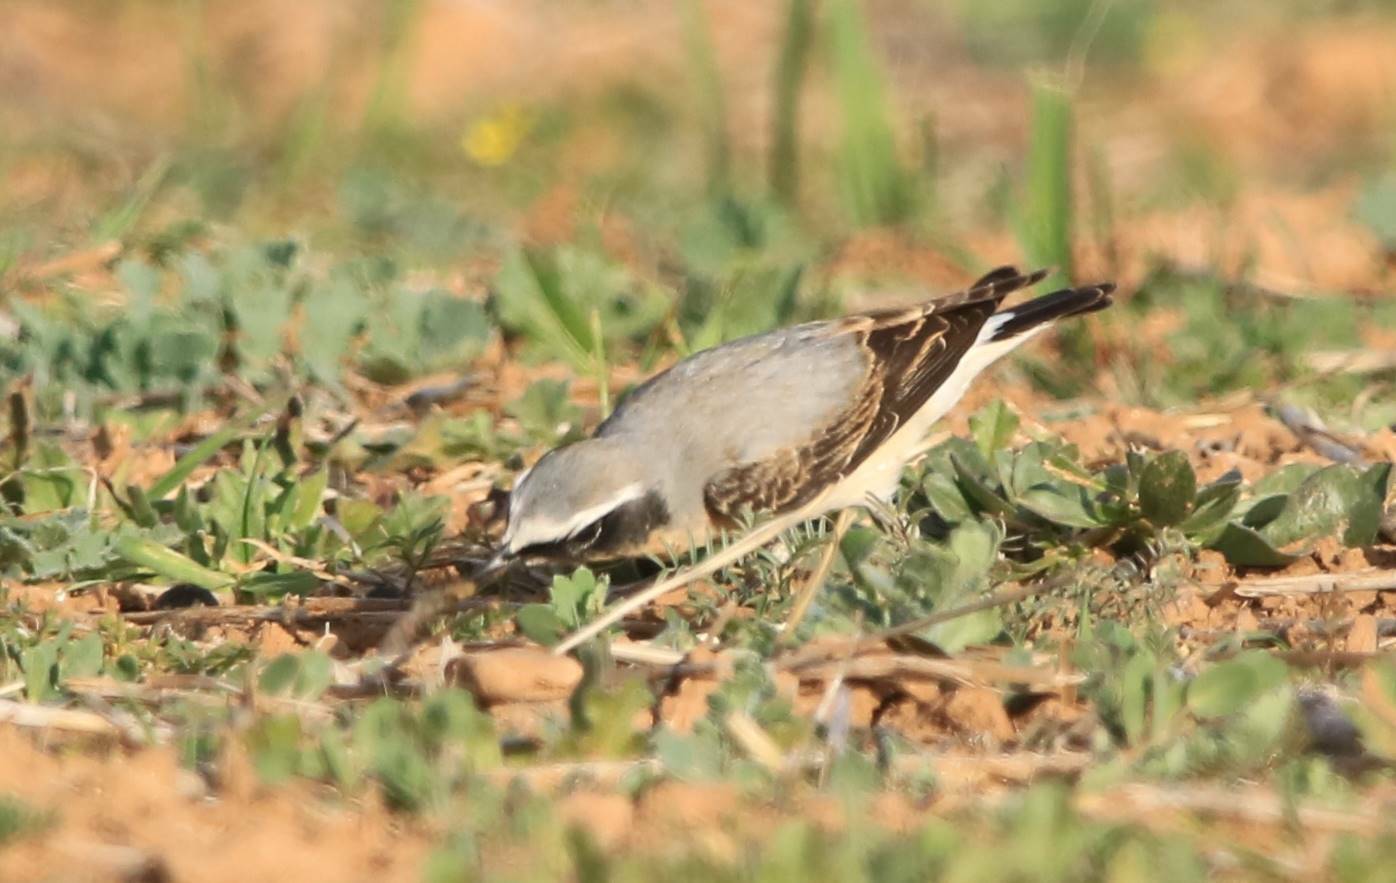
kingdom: Animalia
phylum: Chordata
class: Aves
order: Passeriformes
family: Muscicapidae
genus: Oenanthe
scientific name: Oenanthe oenanthe
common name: Northern wheatear
